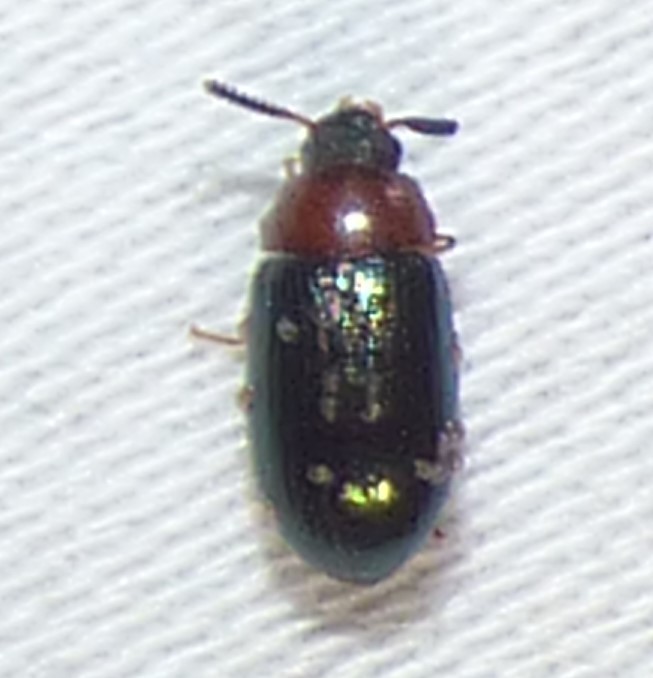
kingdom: Animalia
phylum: Arthropoda
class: Insecta
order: Coleoptera
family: Tenebrionidae
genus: Neomida
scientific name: Neomida bicornis
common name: Two-horned darkling beetle
